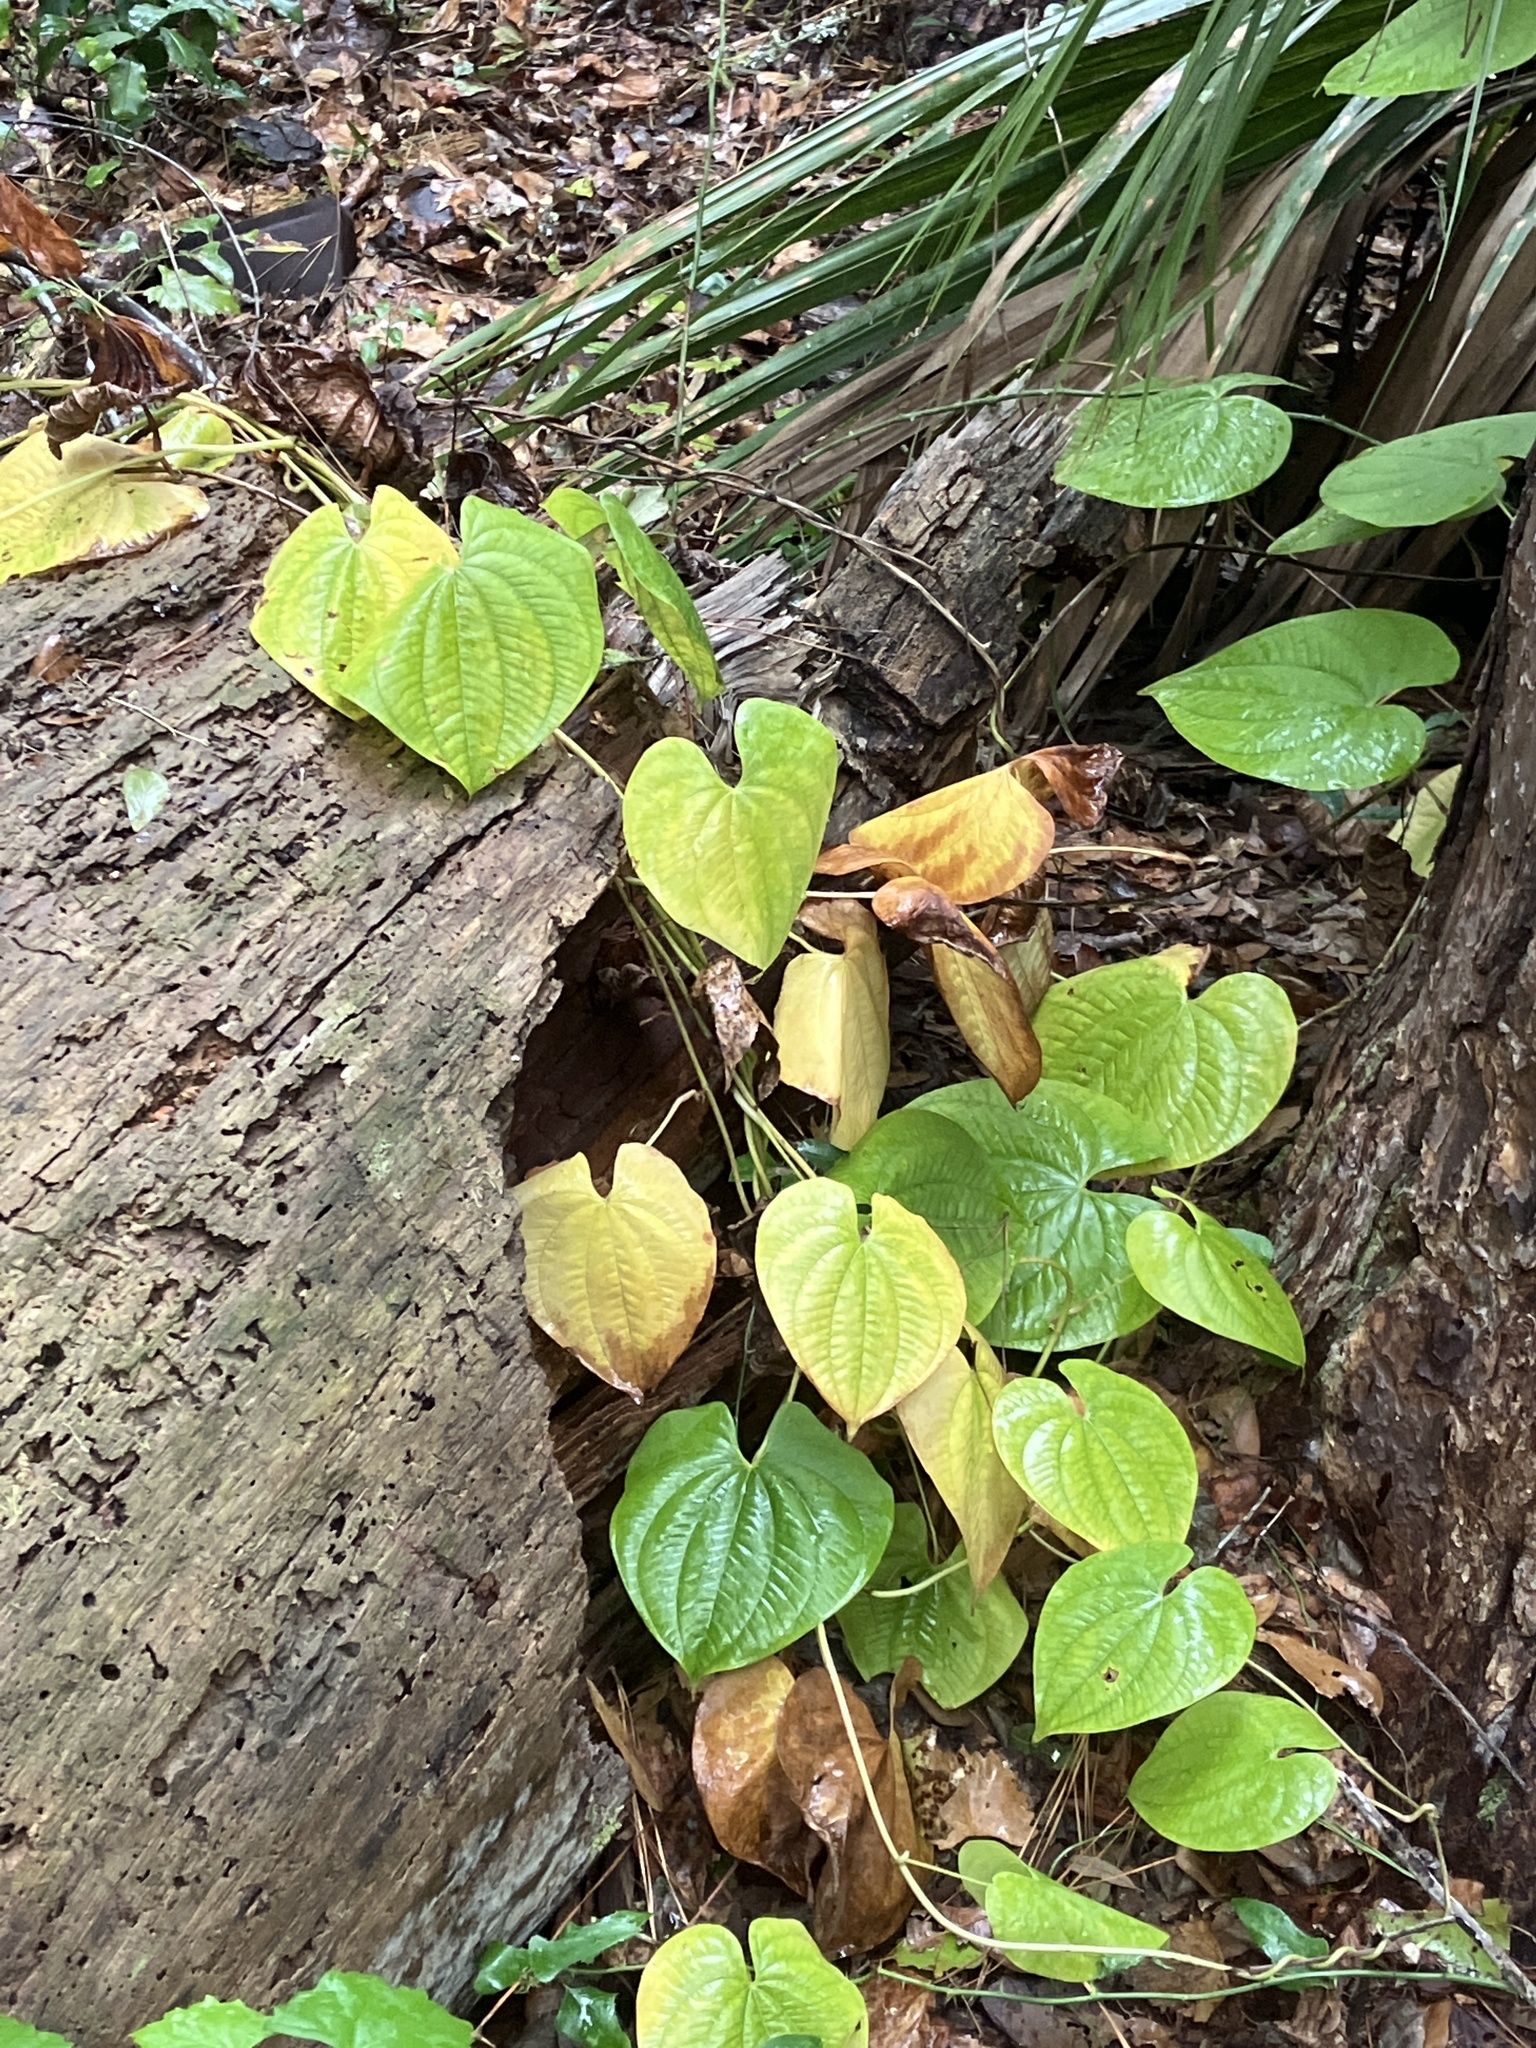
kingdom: Plantae
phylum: Tracheophyta
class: Liliopsida
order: Dioscoreales
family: Dioscoreaceae
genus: Dioscorea
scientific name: Dioscorea bulbifera
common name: Air yam
